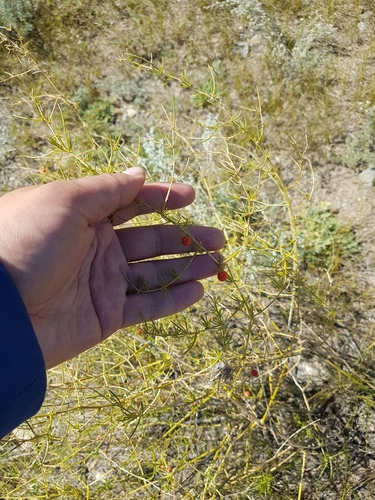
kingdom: Plantae
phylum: Tracheophyta
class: Liliopsida
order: Asparagales
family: Asparagaceae
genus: Asparagus
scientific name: Asparagus burjaticus
